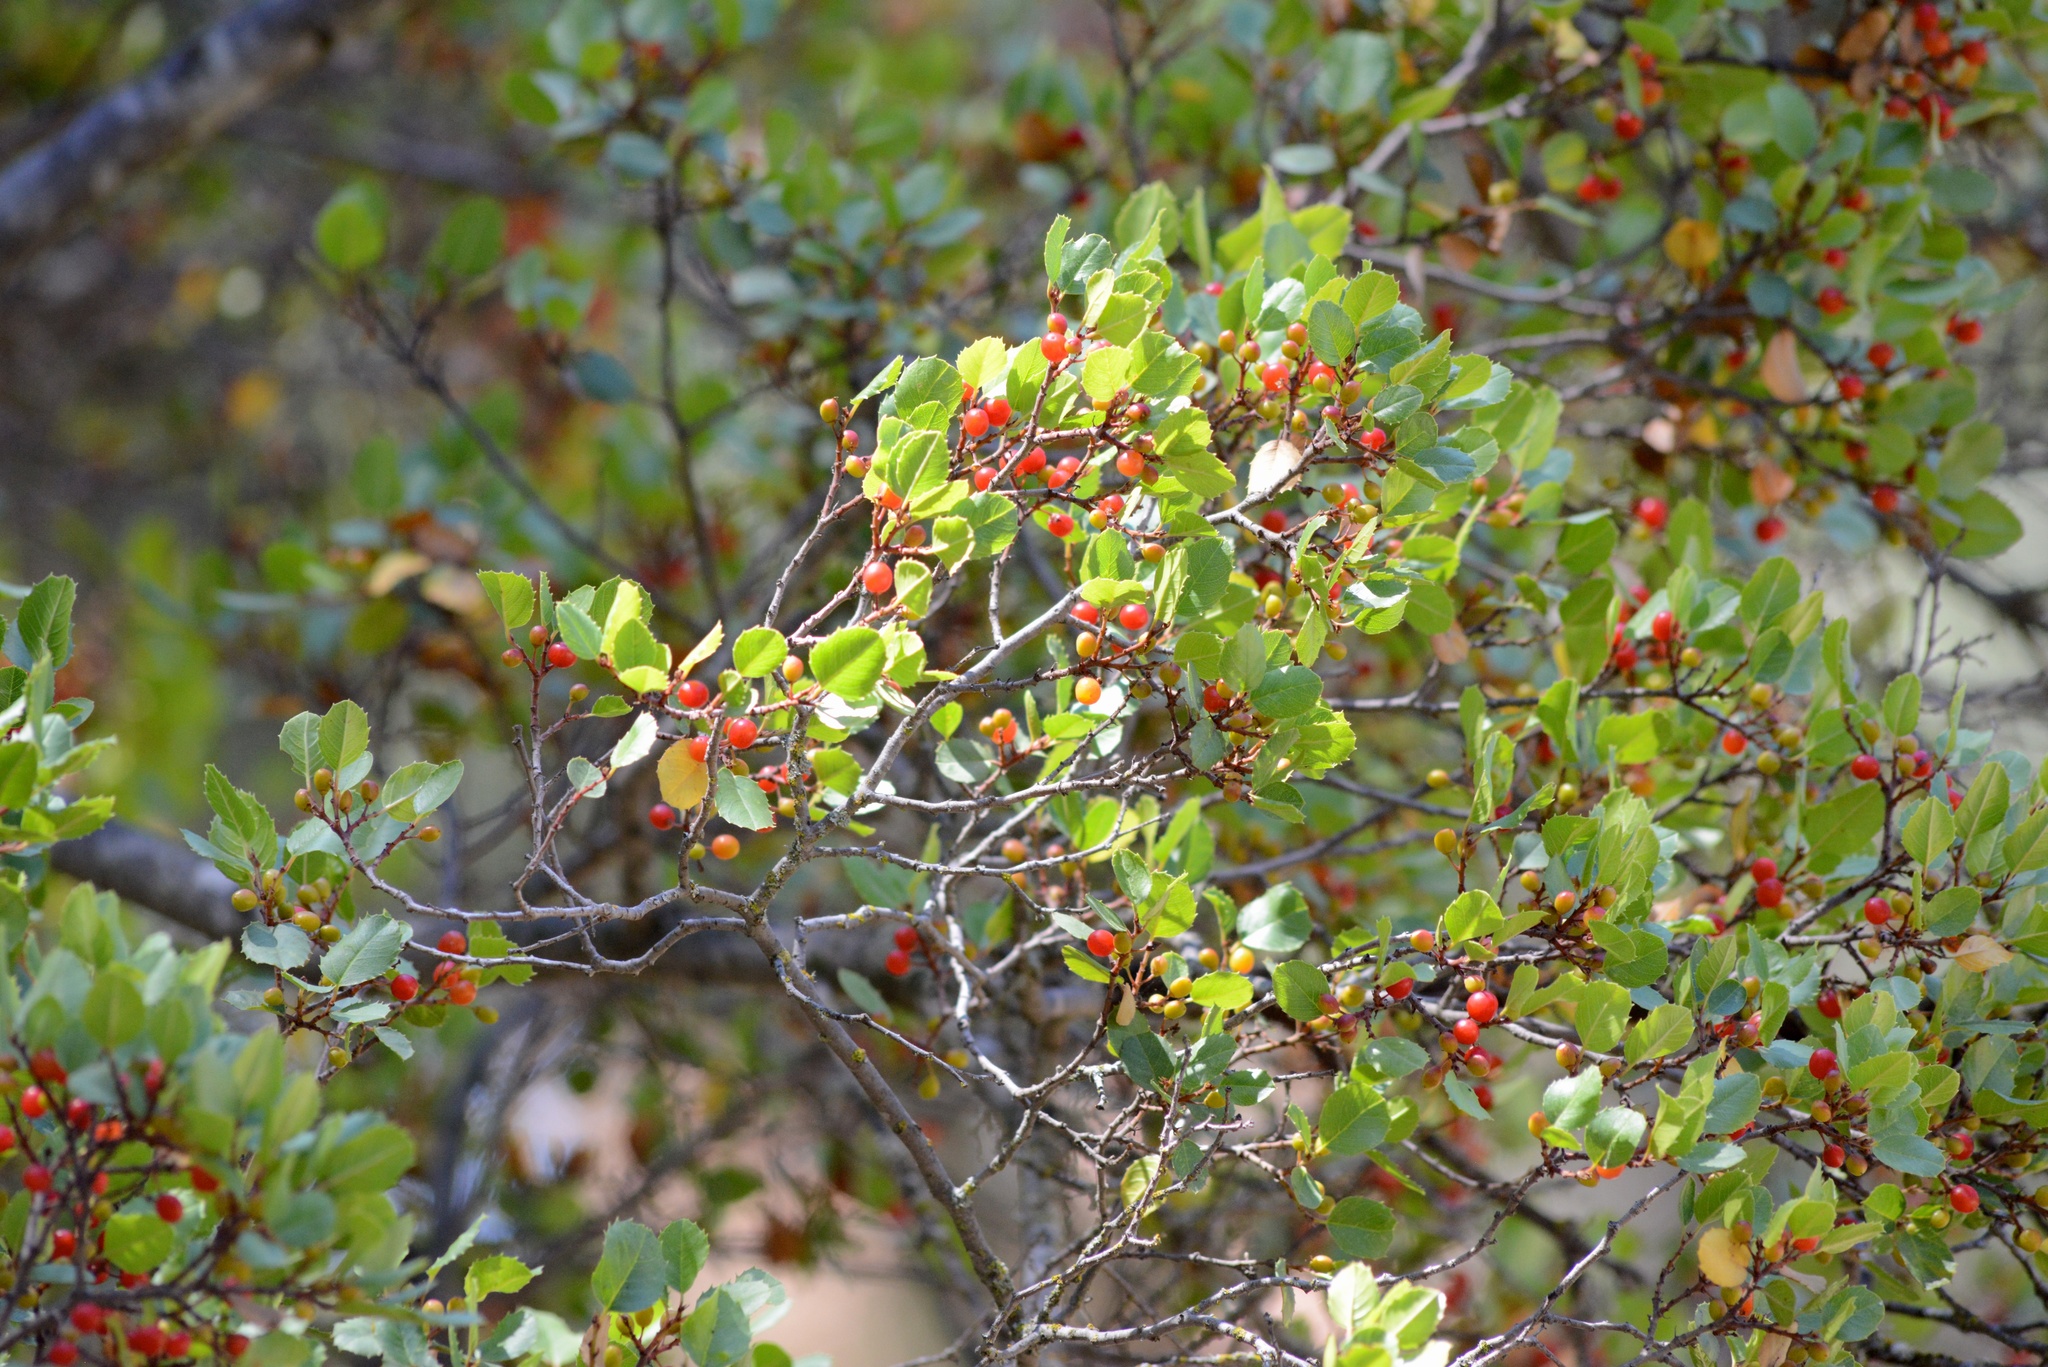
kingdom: Plantae
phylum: Tracheophyta
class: Magnoliopsida
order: Rosales
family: Rhamnaceae
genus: Endotropis
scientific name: Endotropis crocea
